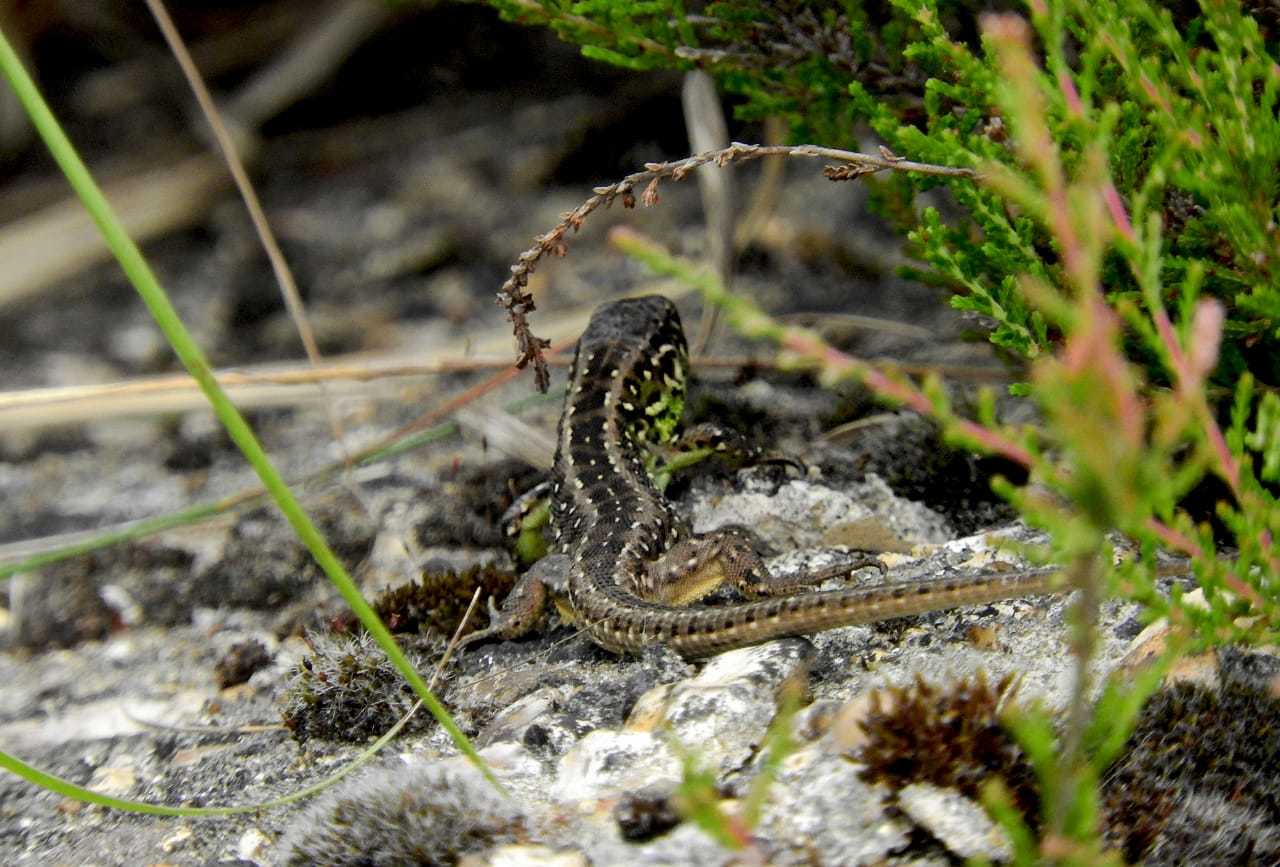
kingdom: Animalia
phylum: Chordata
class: Squamata
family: Lacertidae
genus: Lacerta
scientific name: Lacerta agilis
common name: Sand lizard
